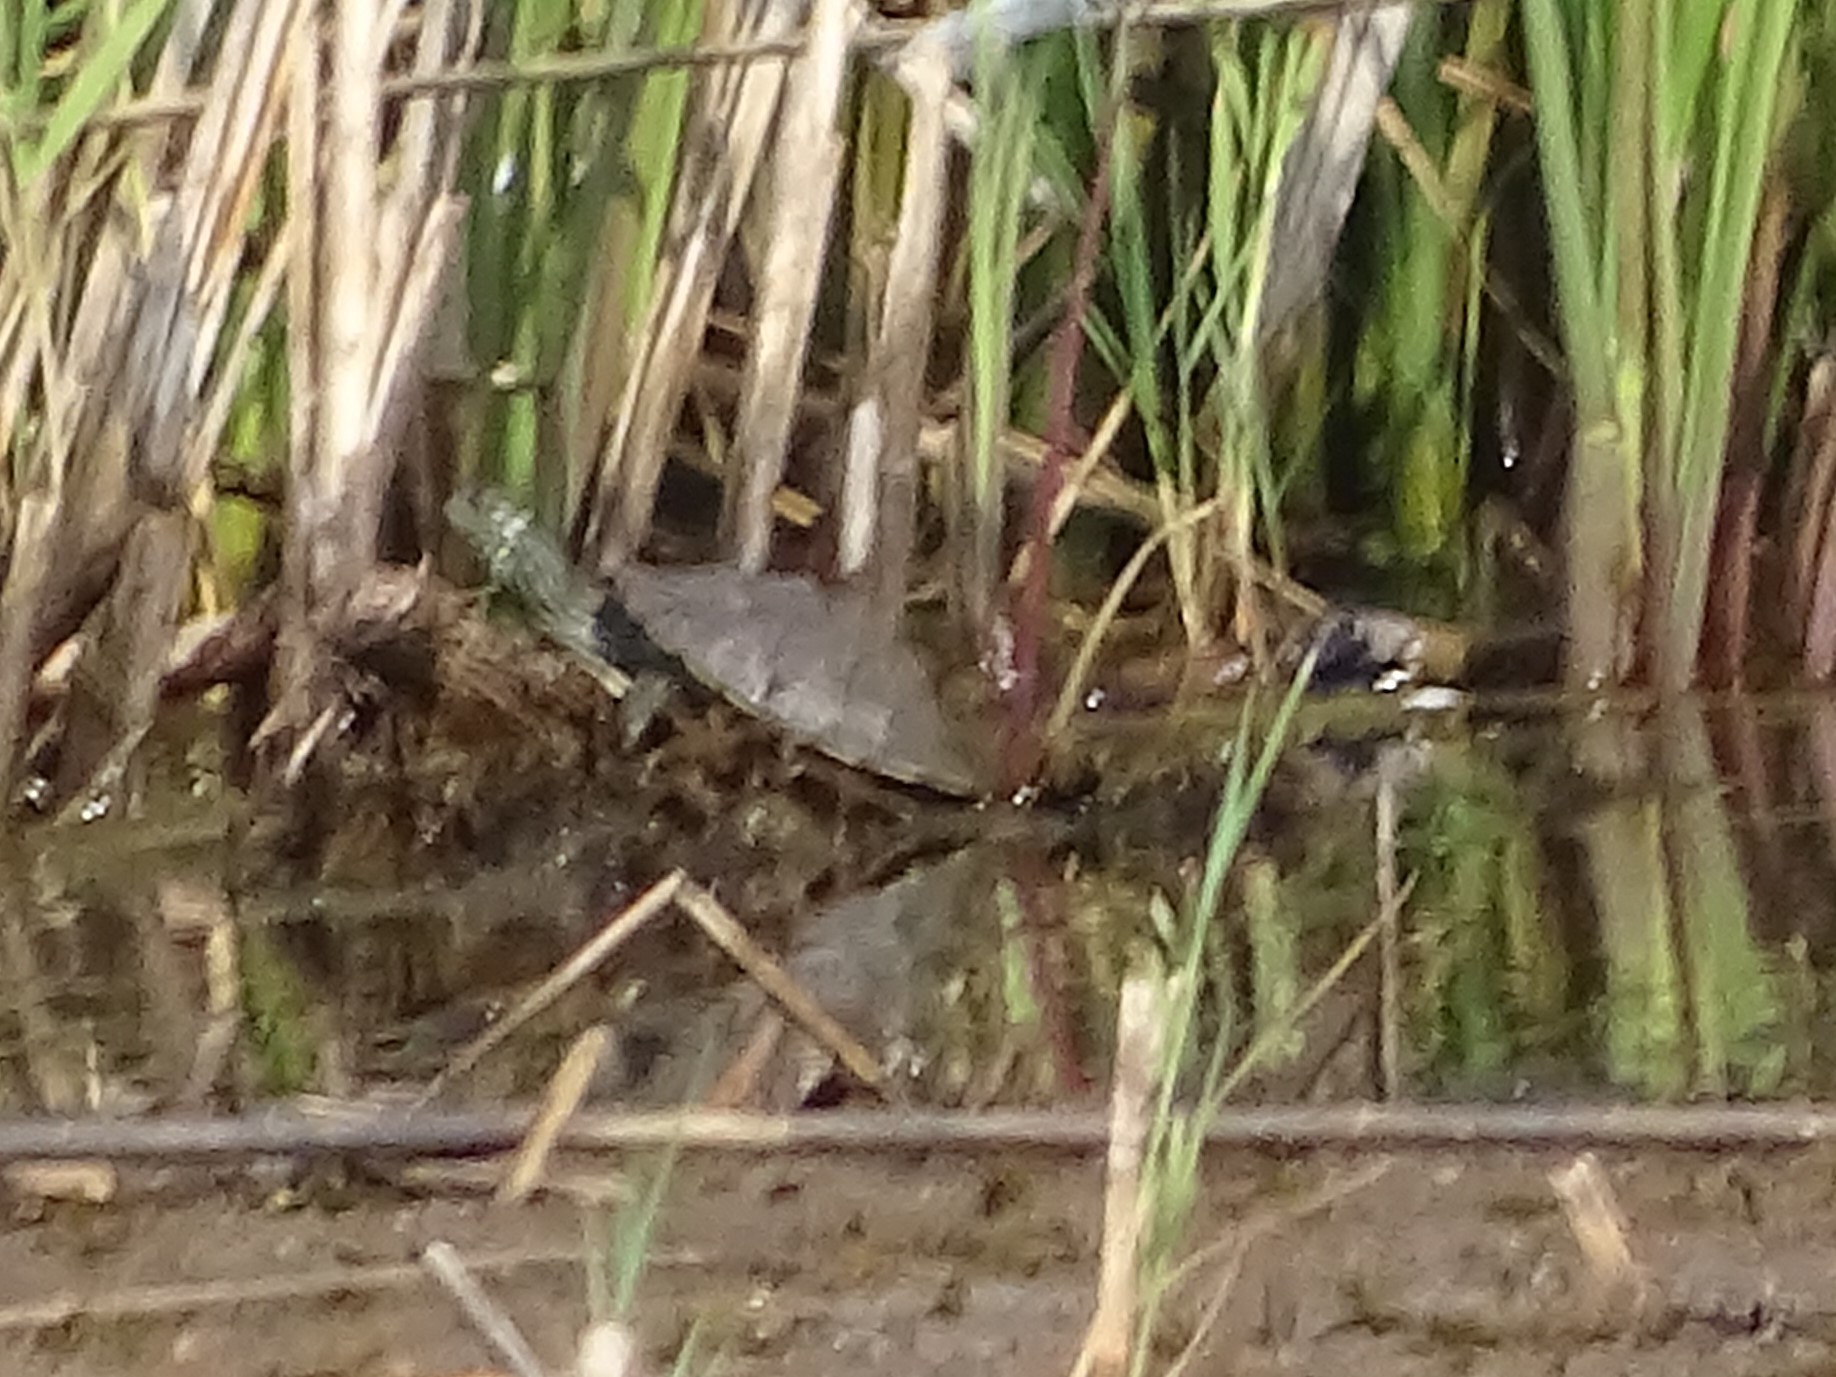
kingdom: Animalia
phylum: Chordata
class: Testudines
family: Emydidae
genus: Graptemys
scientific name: Graptemys geographica
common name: Common map turtle
